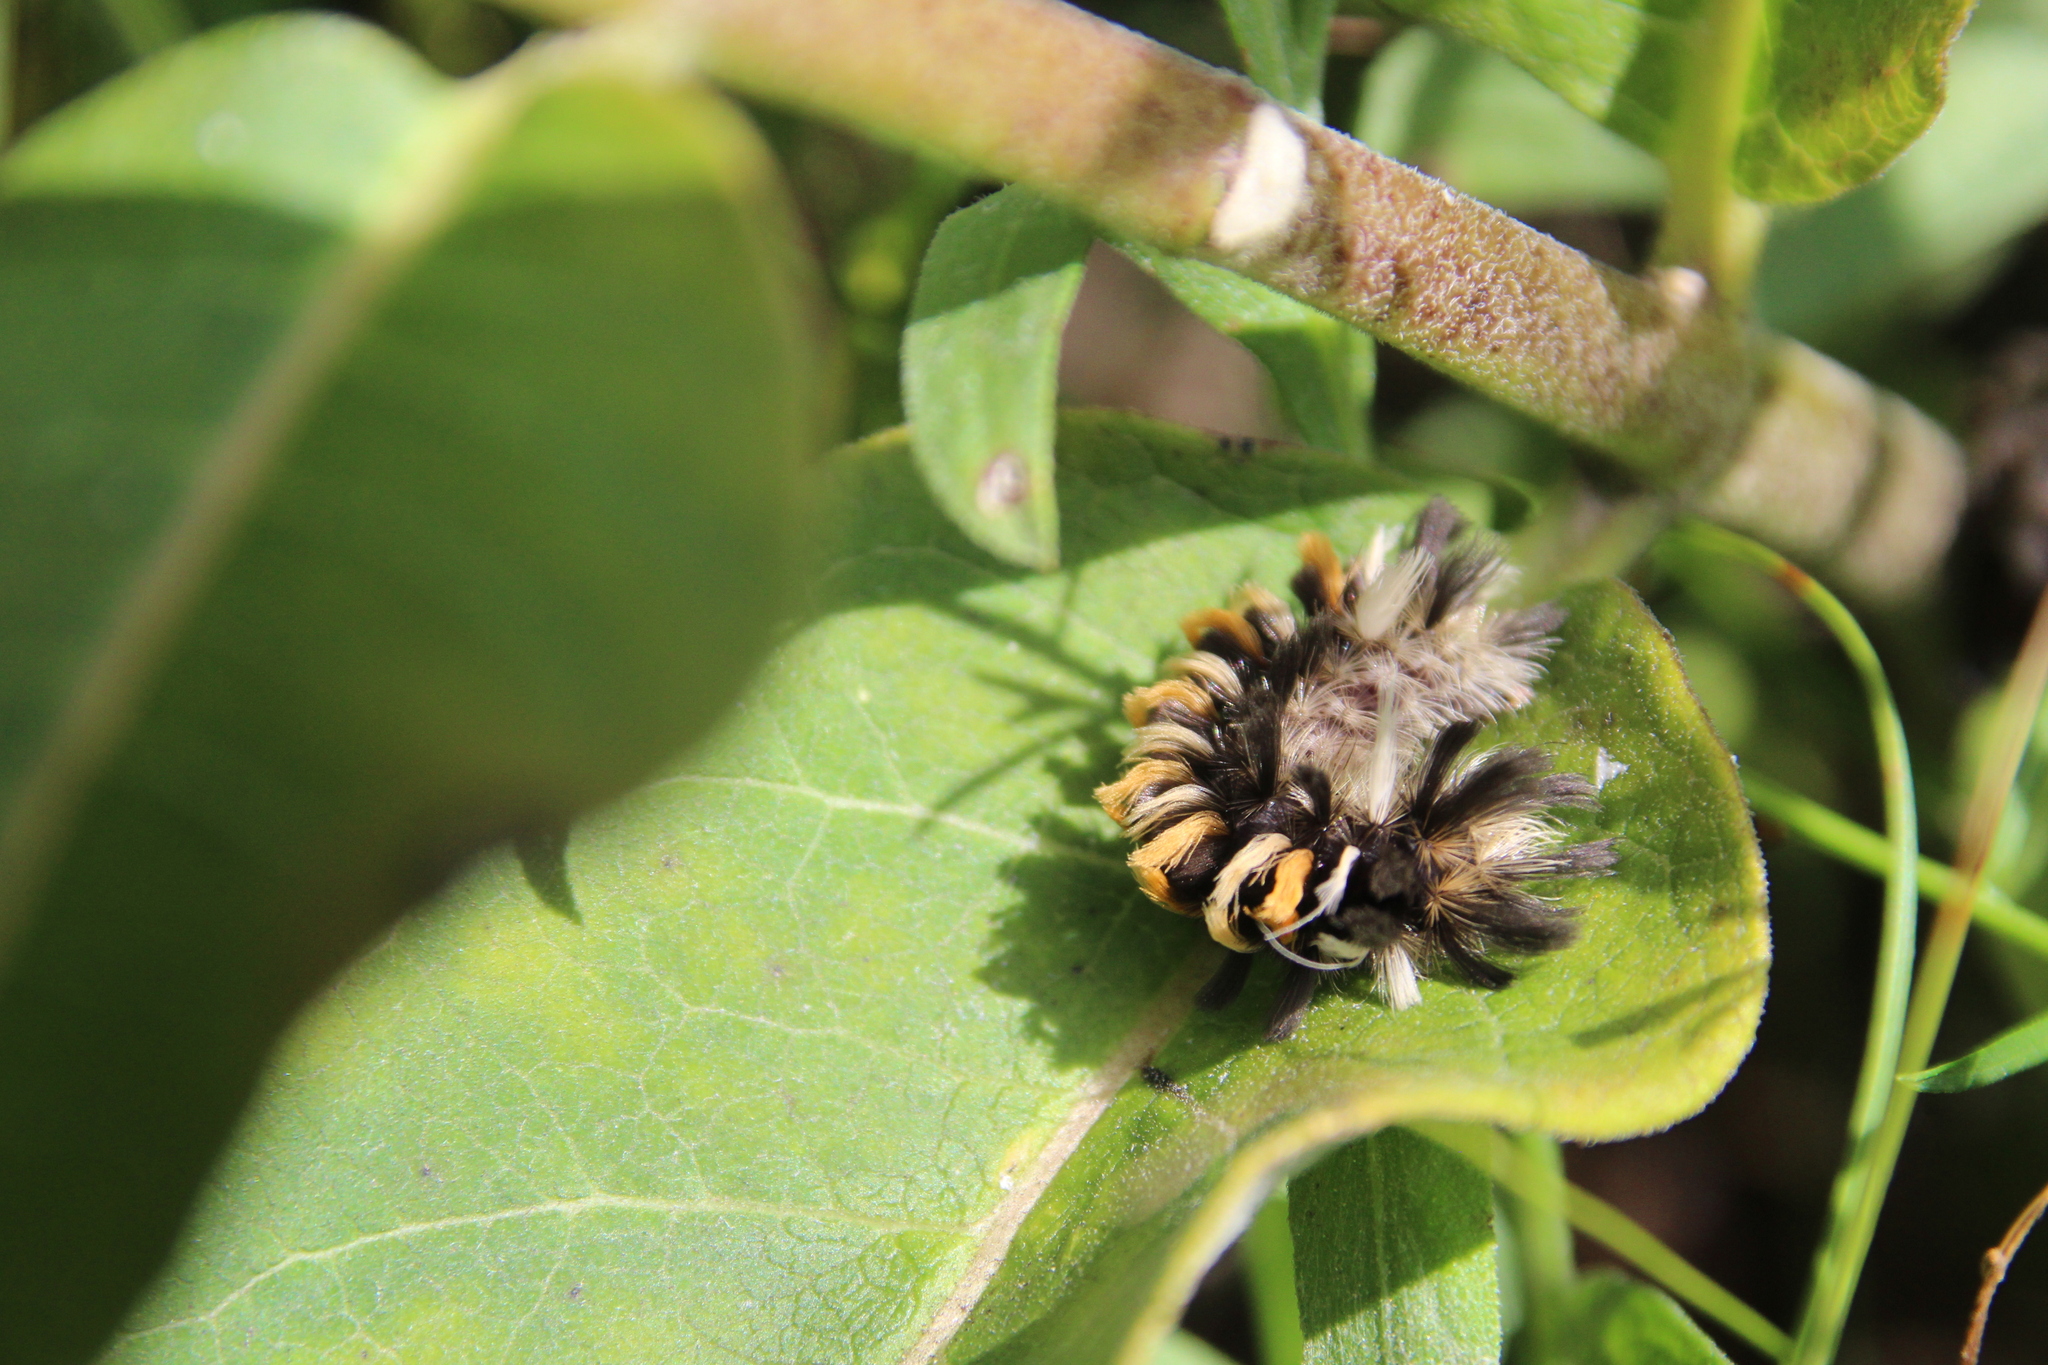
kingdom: Animalia
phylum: Arthropoda
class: Insecta
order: Lepidoptera
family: Erebidae
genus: Euchaetes
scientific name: Euchaetes egle
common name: Milkweed tussock moth
